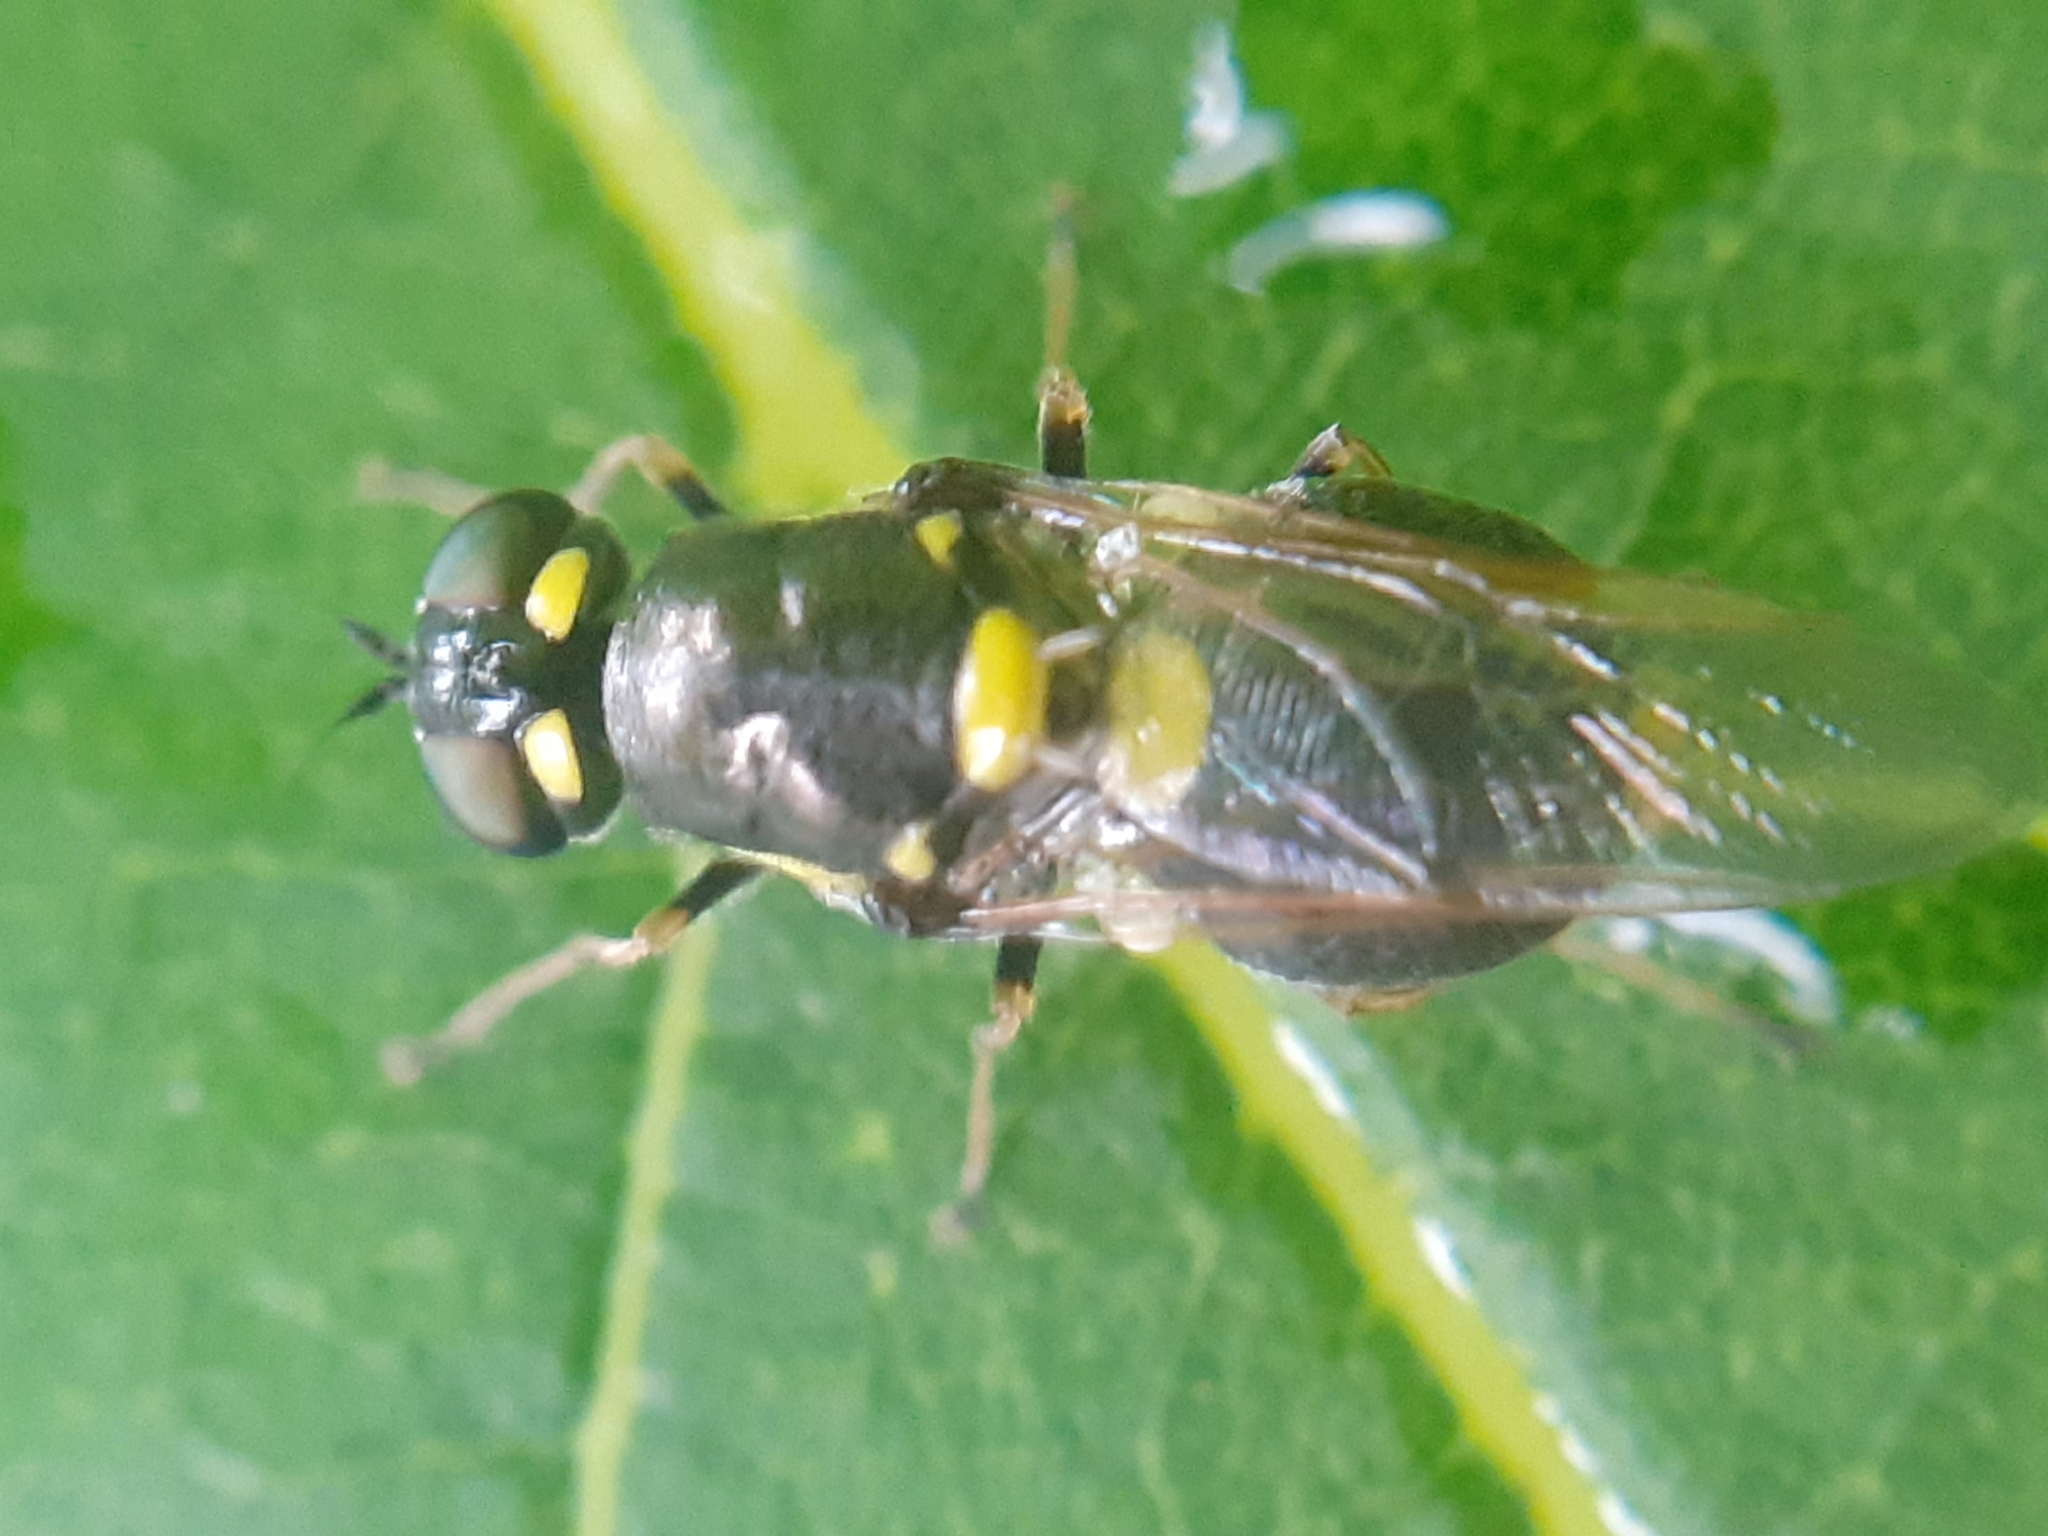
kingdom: Animalia
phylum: Arthropoda
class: Insecta
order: Diptera
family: Stratiomyidae
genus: Oxycera
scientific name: Oxycera leonina
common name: Twin-spotted major
